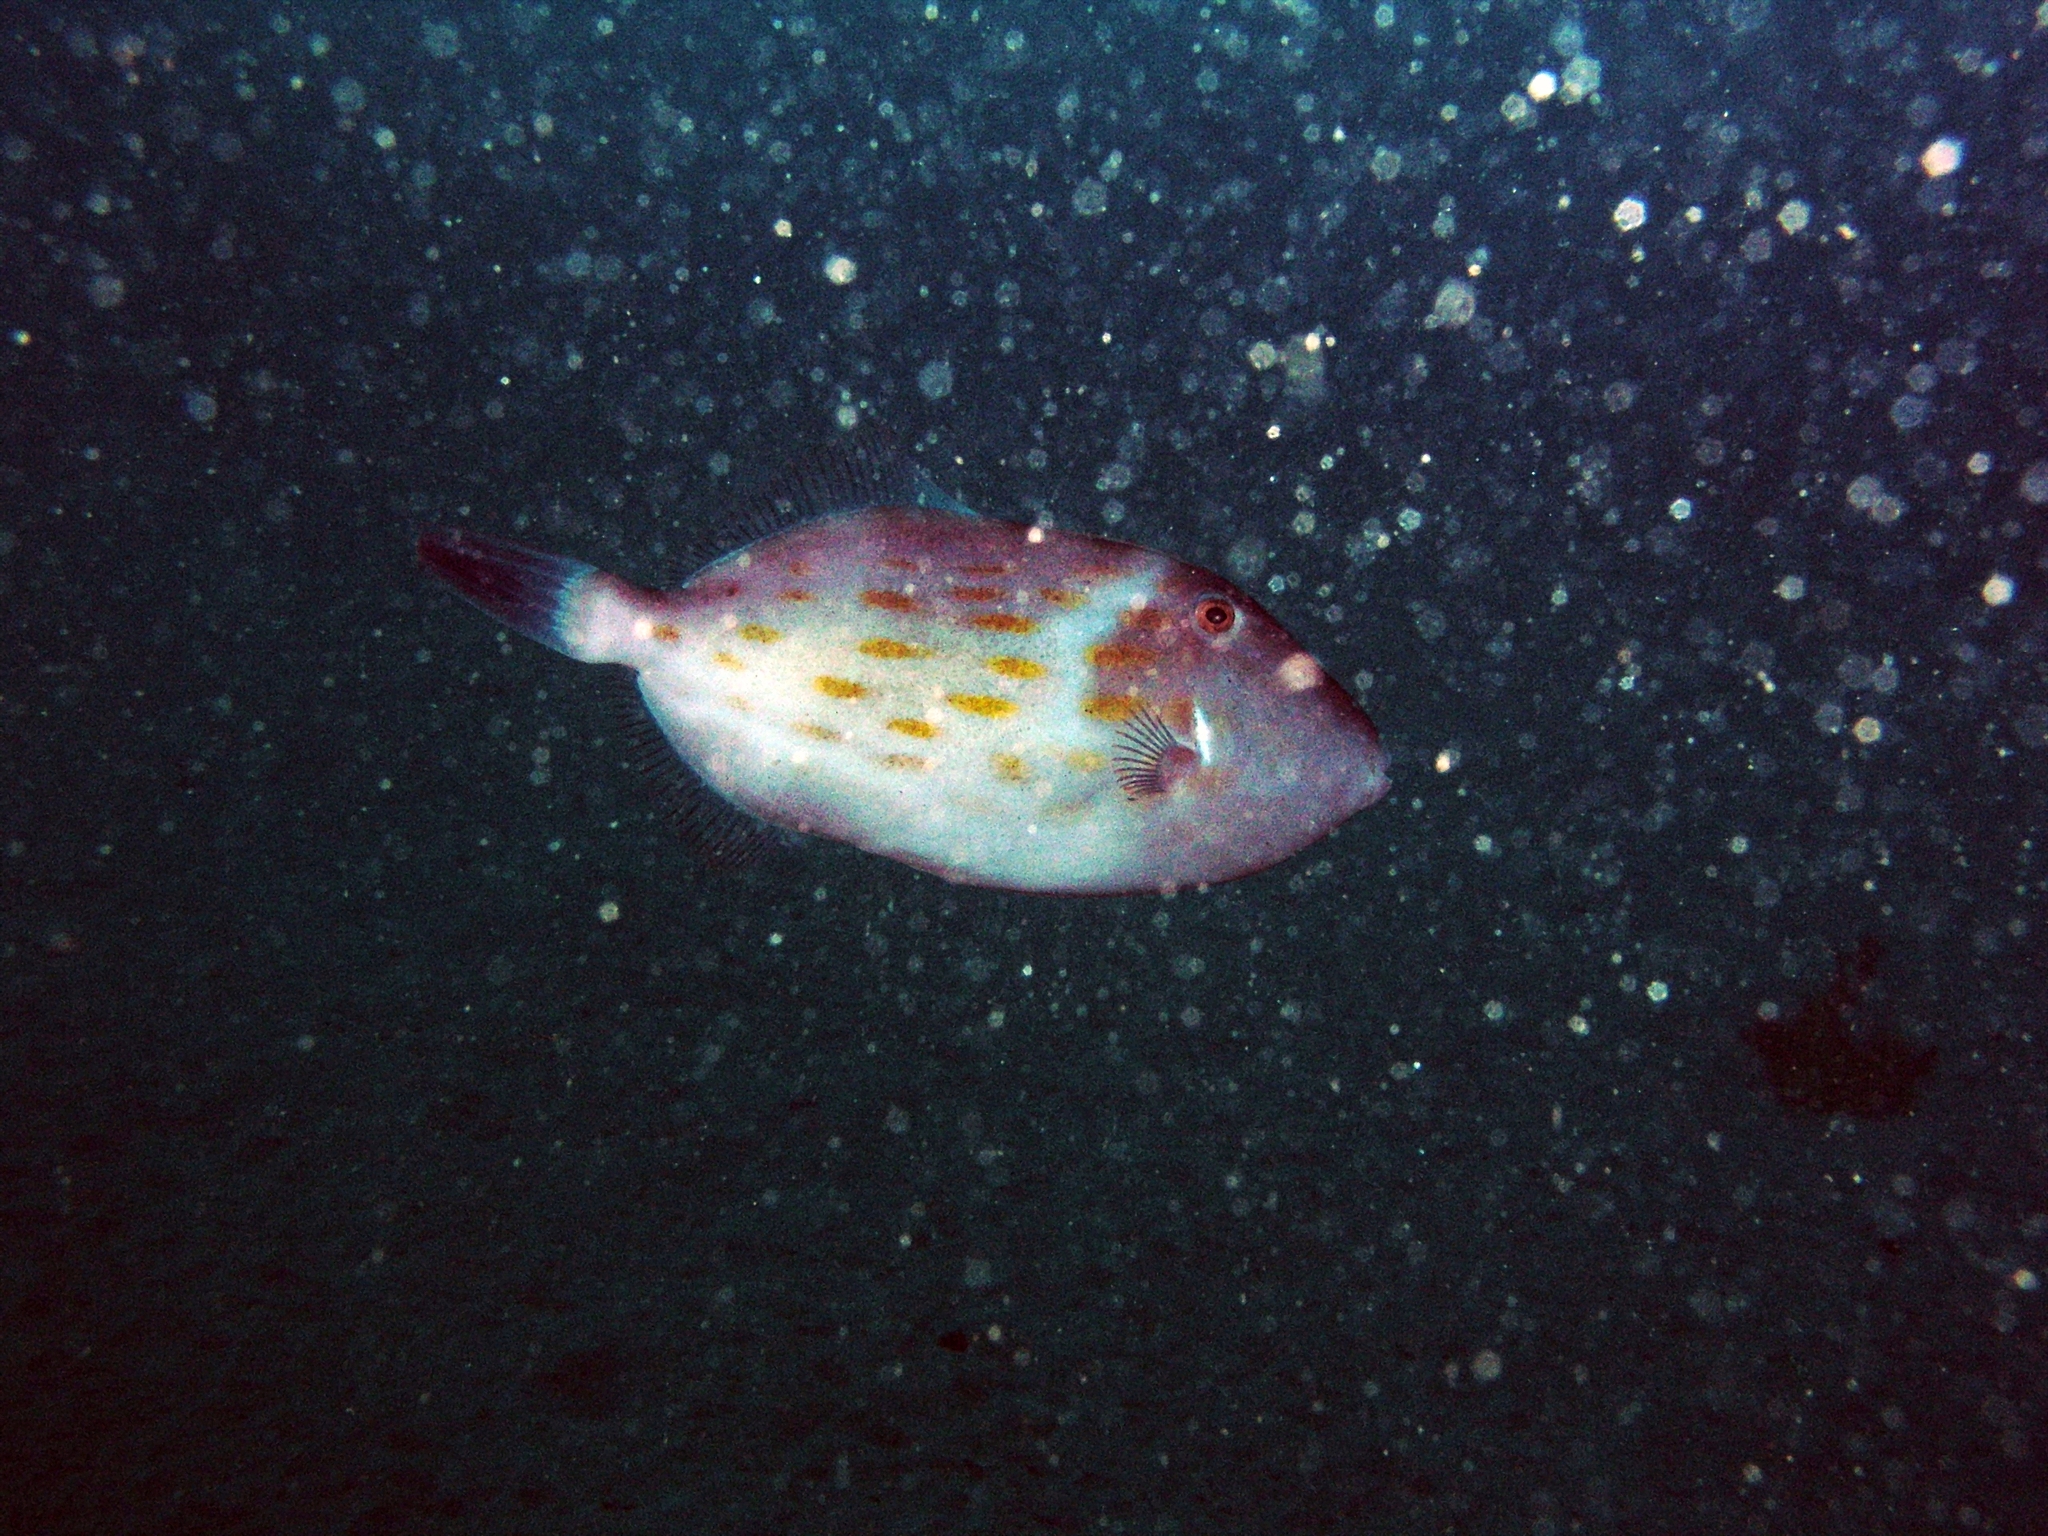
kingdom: Animalia
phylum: Chordata
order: Tetraodontiformes
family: Monacanthidae
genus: Eubalichthys
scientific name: Eubalichthys mosaicus
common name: Mosaic leatherjacket
